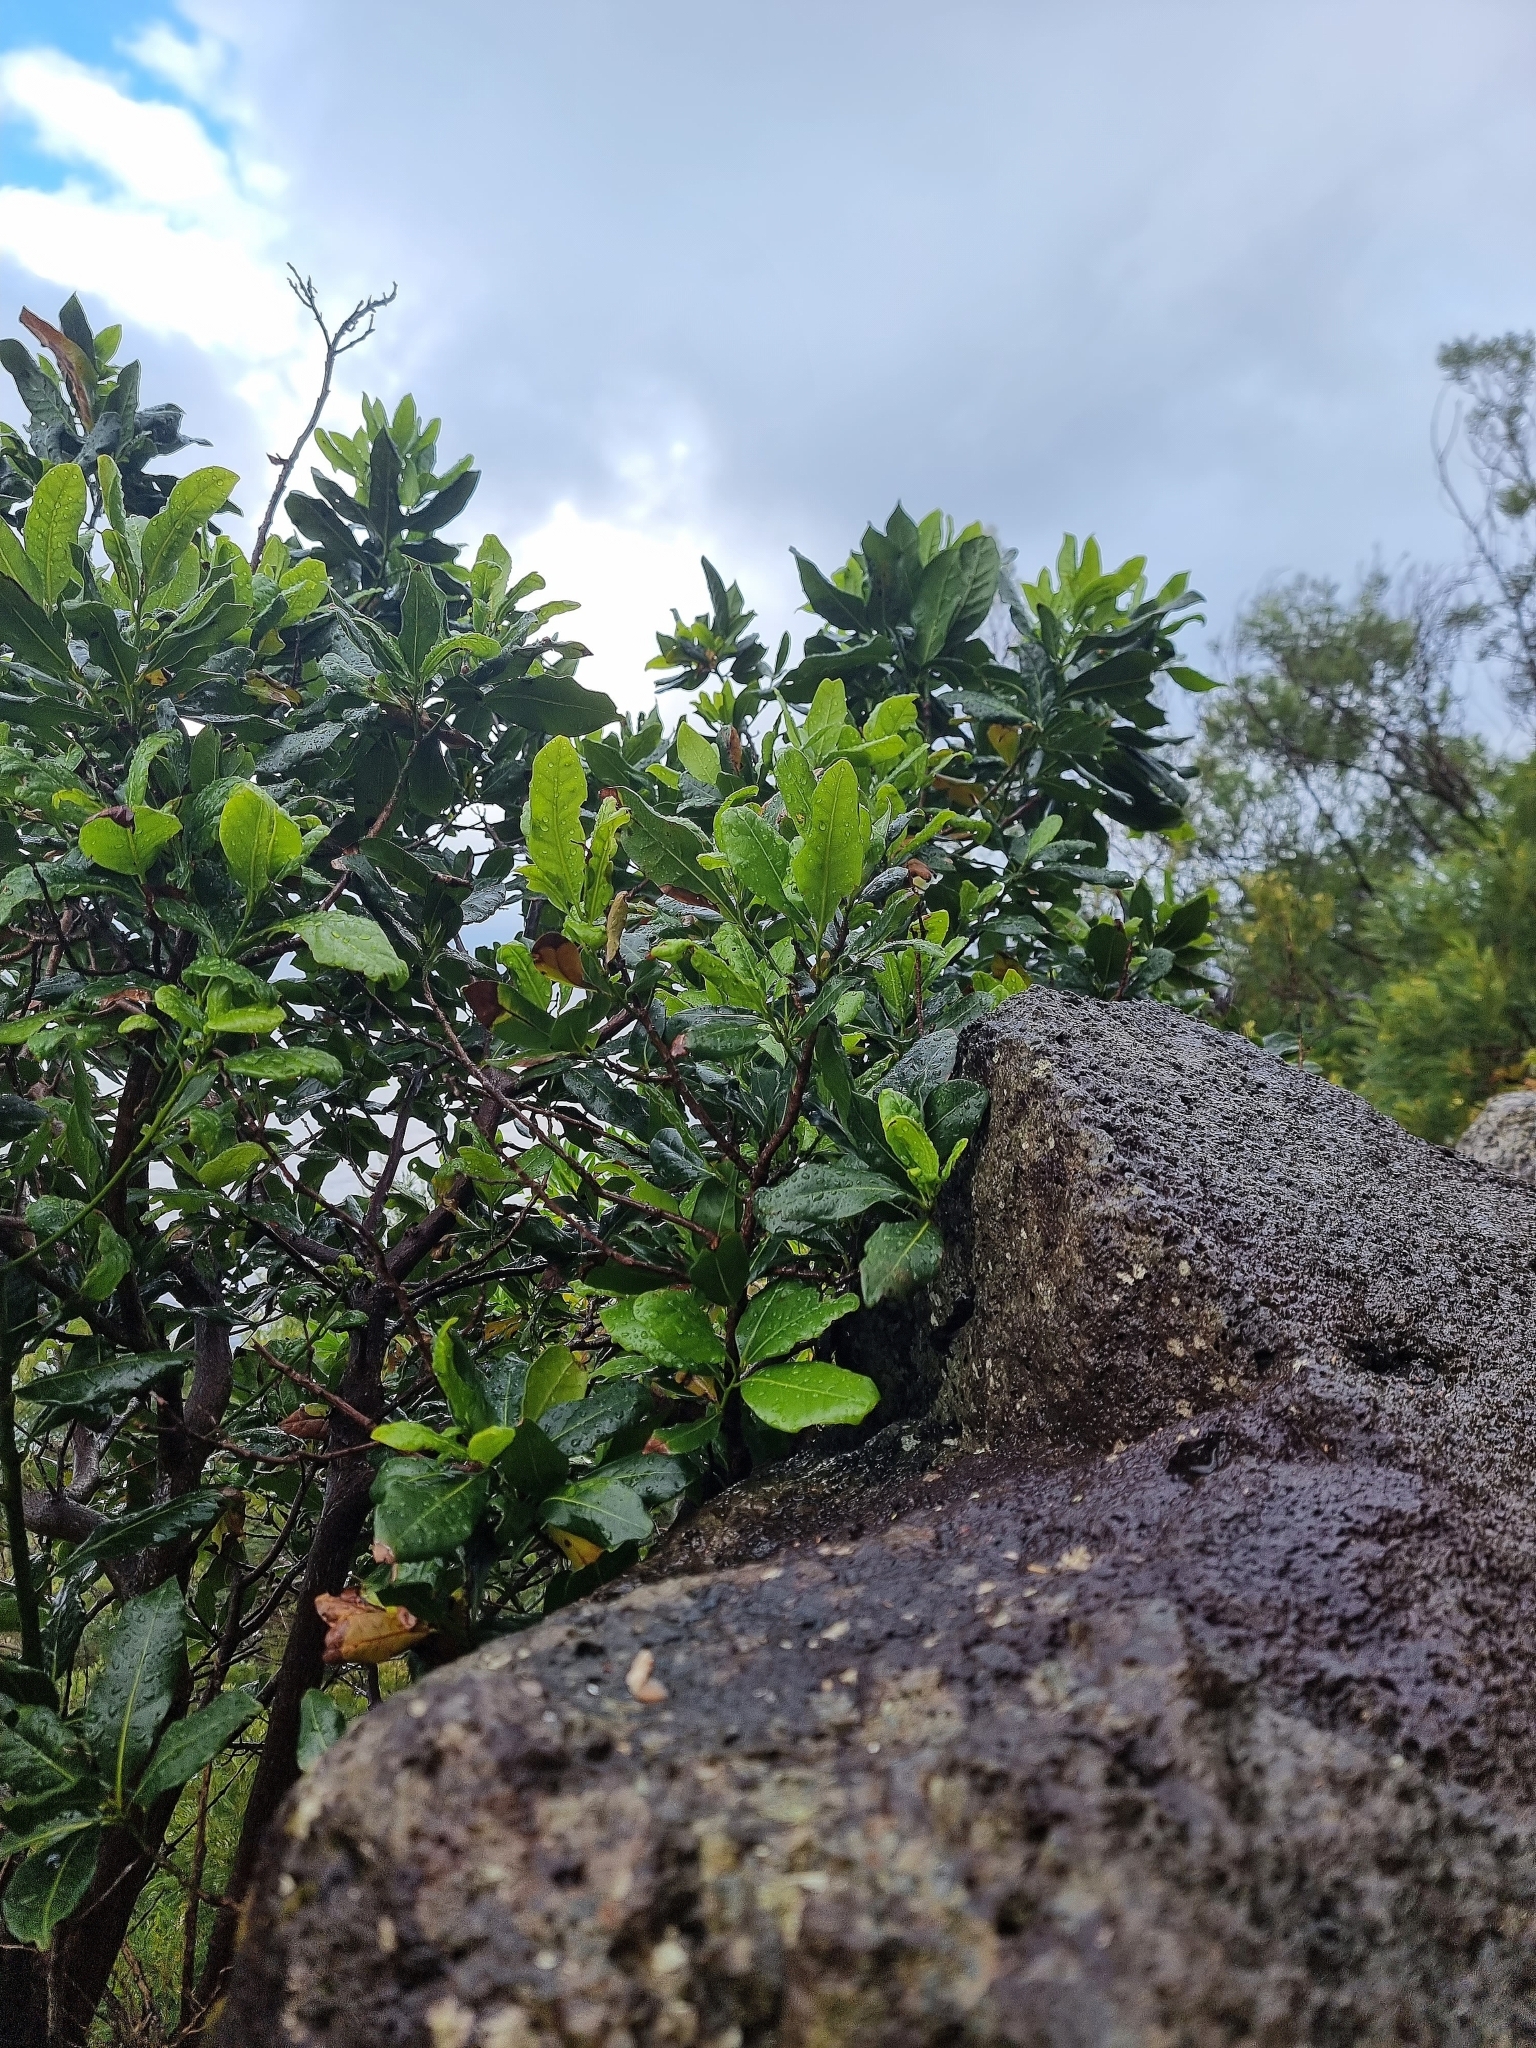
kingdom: Plantae
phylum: Tracheophyta
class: Magnoliopsida
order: Laurales
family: Lauraceae
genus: Apollonias
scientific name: Apollonias barbujana
